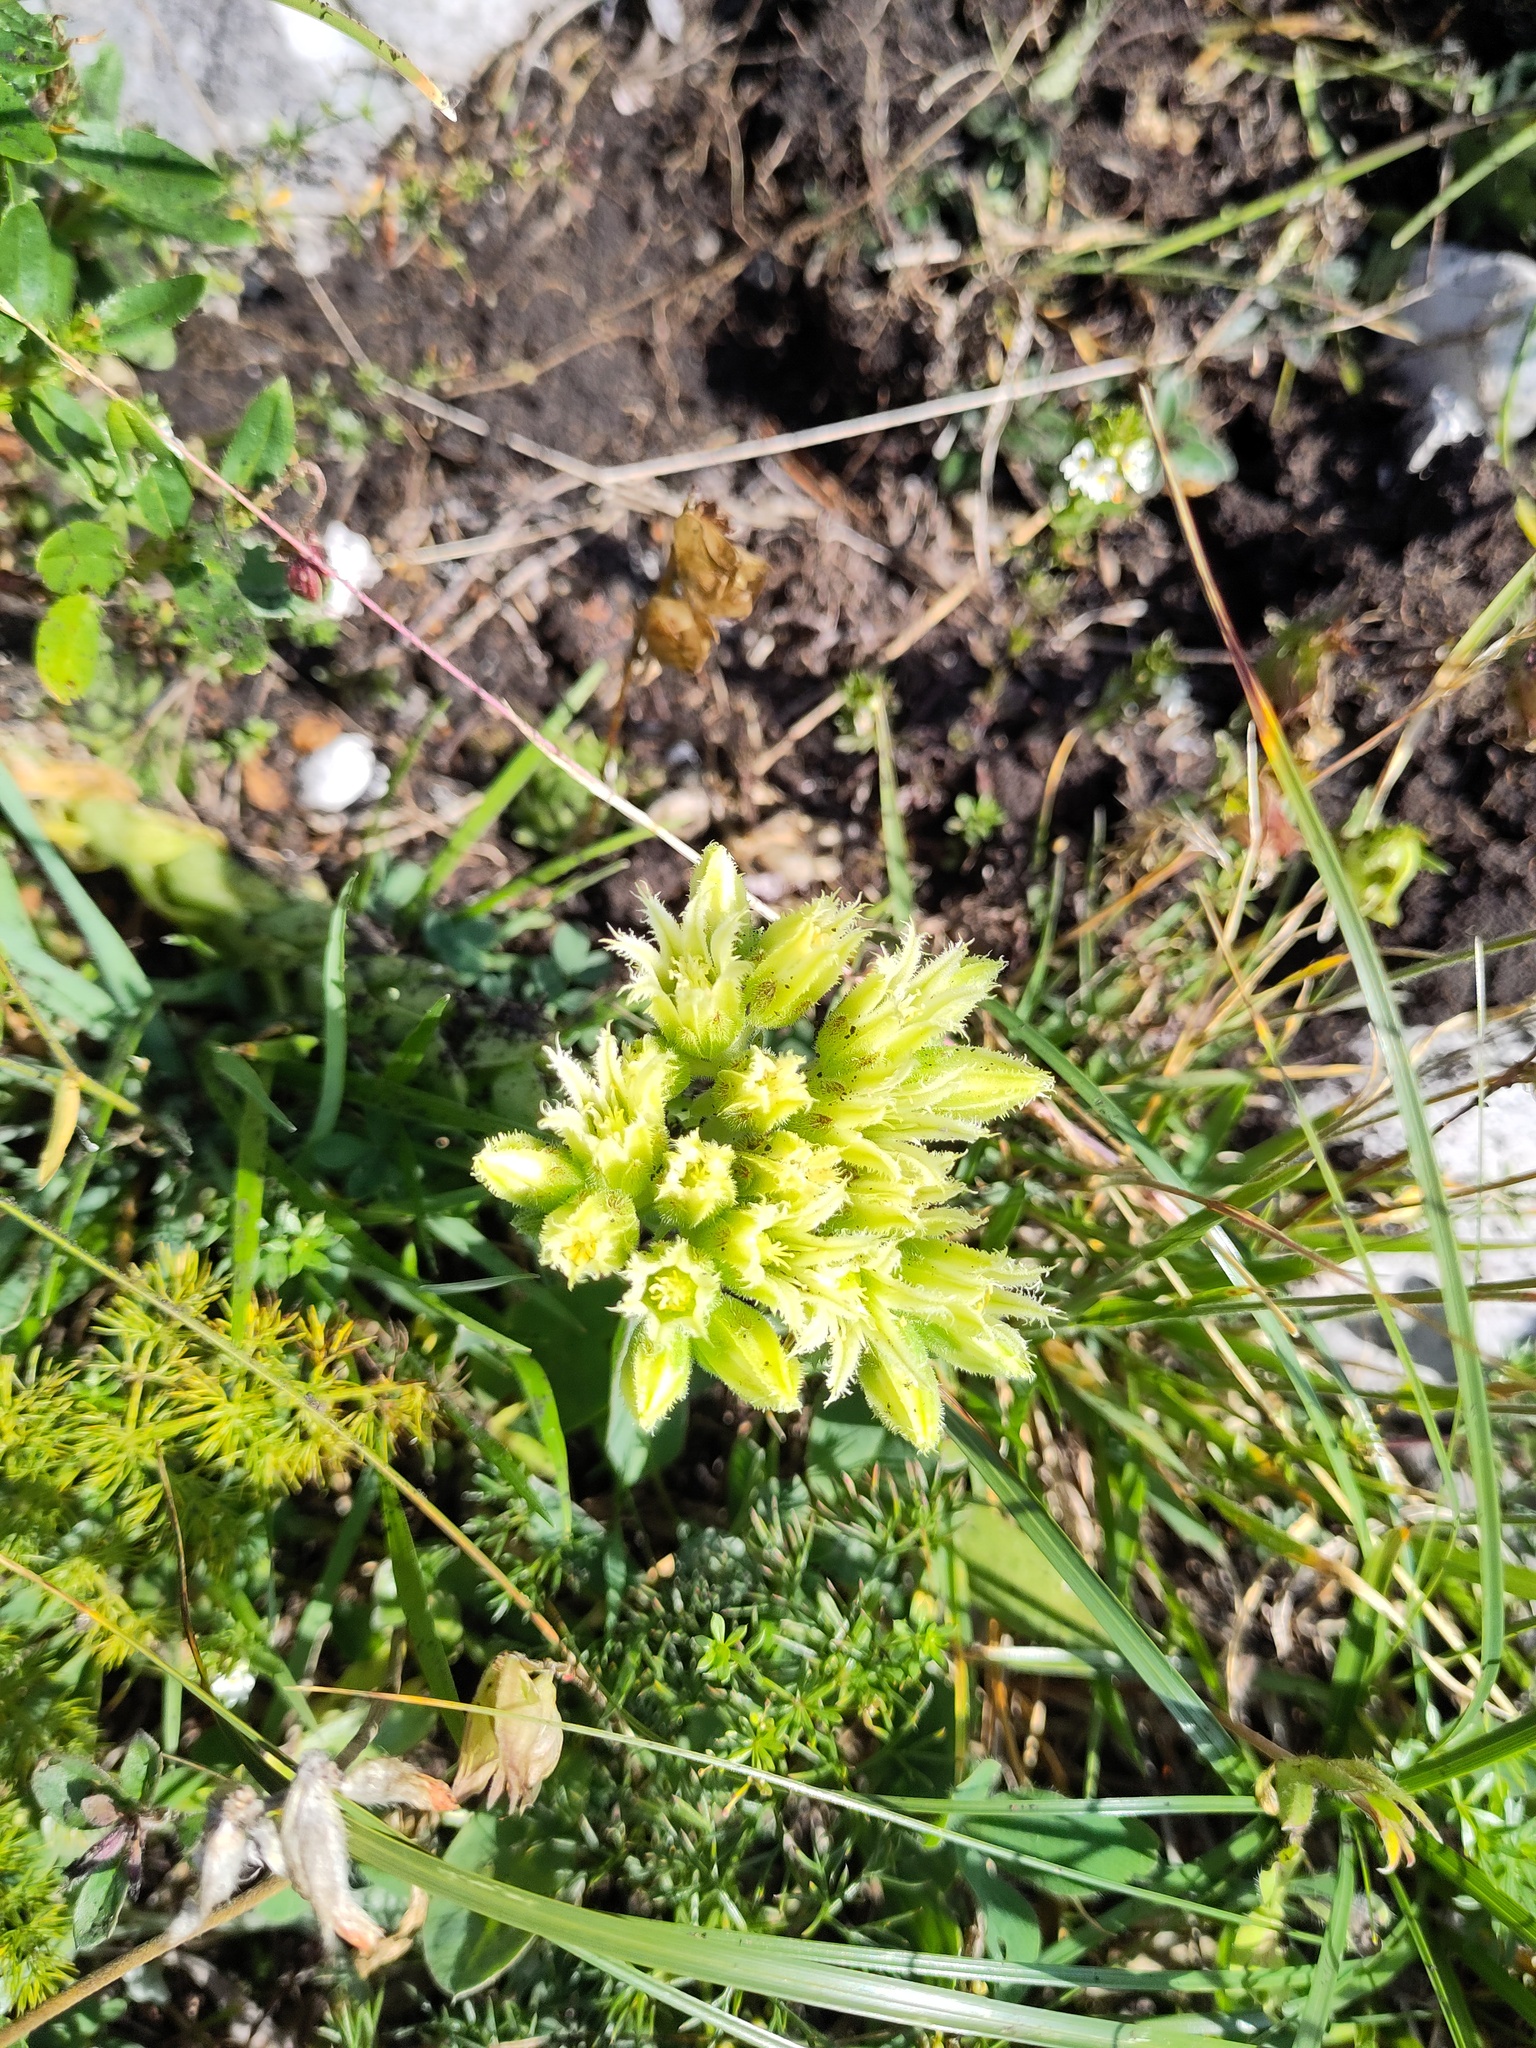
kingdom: Plantae
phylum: Tracheophyta
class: Magnoliopsida
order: Saxifragales
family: Crassulaceae
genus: Sempervivum
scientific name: Sempervivum globiferum
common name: Rolling hen-and-chicks
